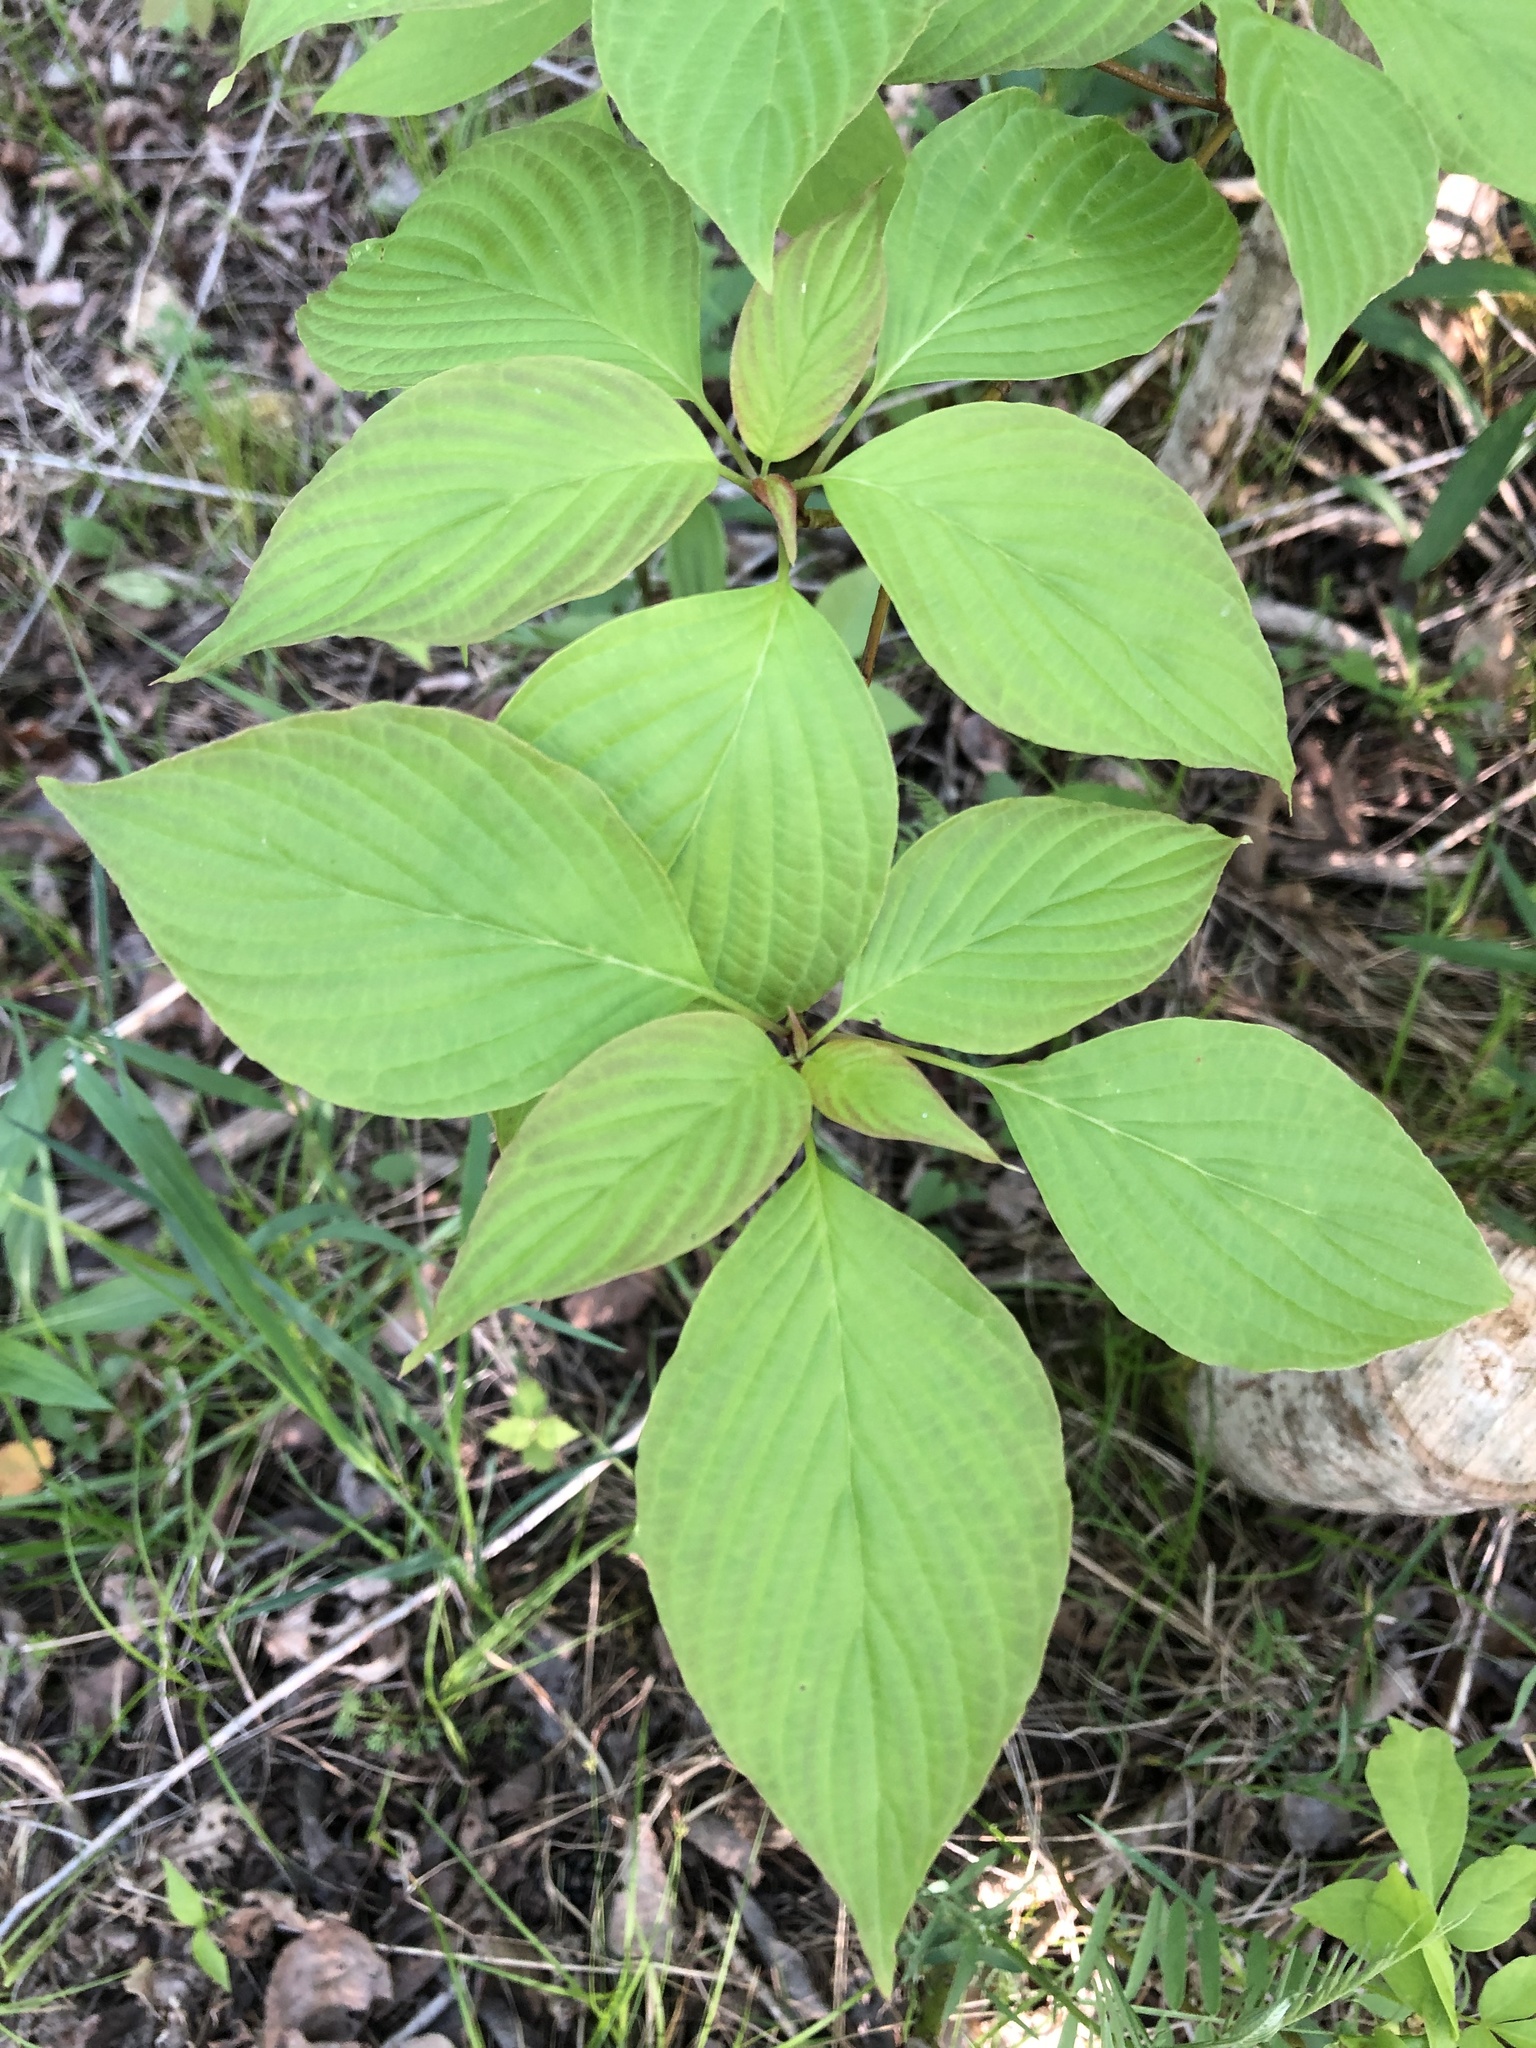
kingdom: Plantae
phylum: Tracheophyta
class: Magnoliopsida
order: Cornales
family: Cornaceae
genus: Cornus
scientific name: Cornus alternifolia
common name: Pagoda dogwood
